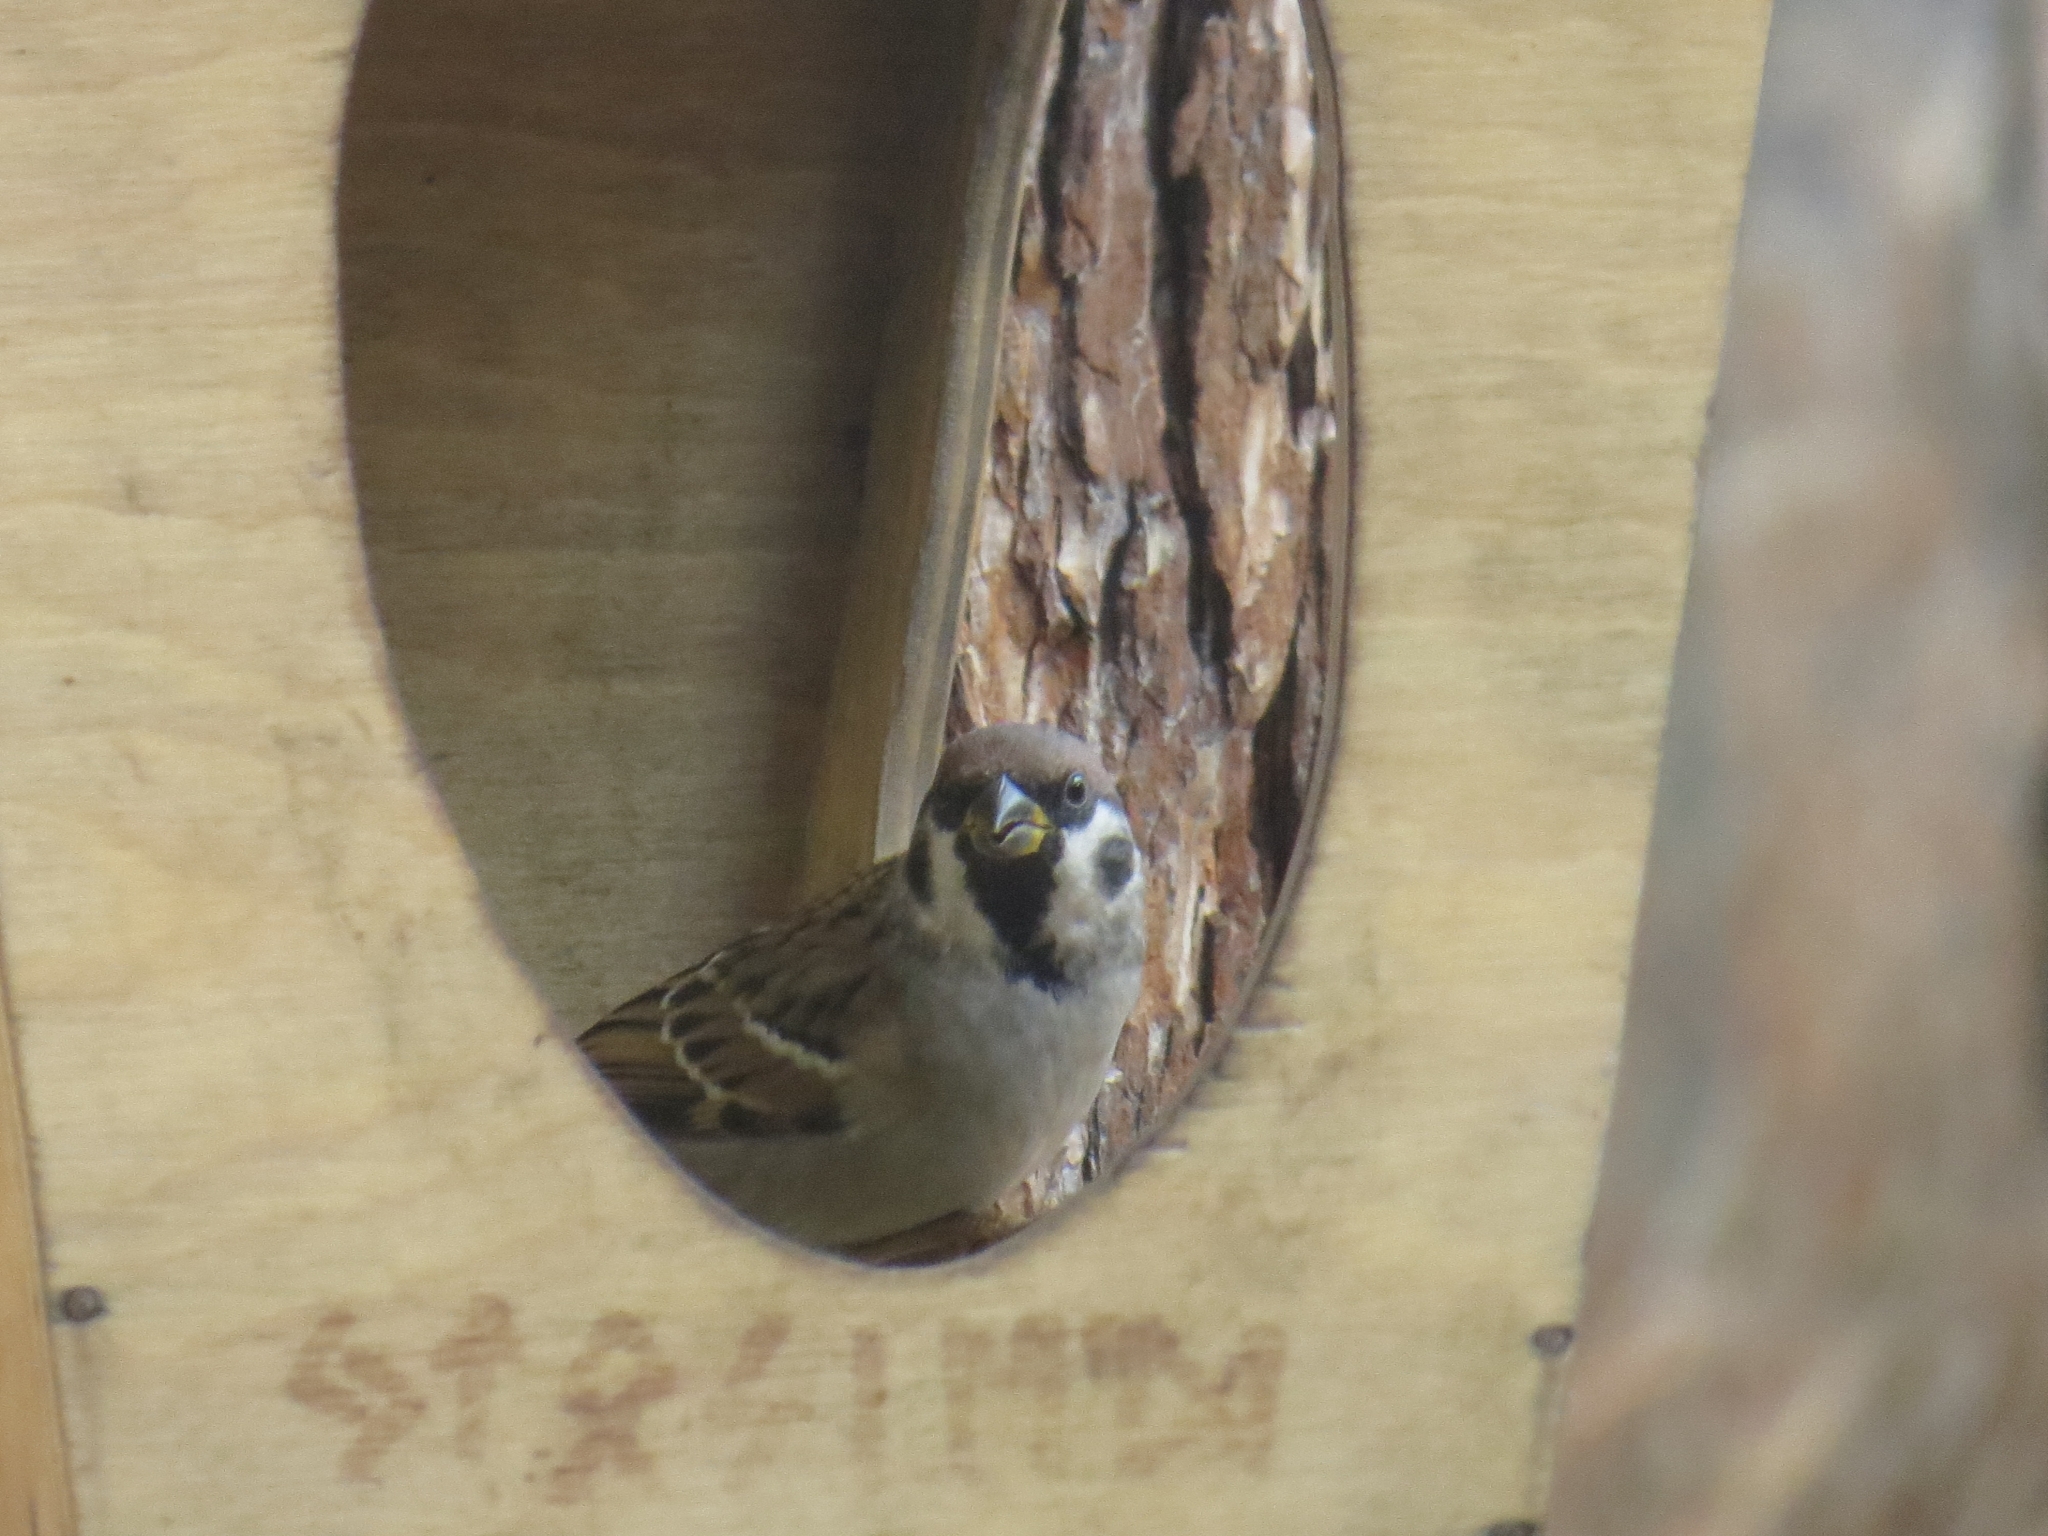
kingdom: Animalia
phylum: Chordata
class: Aves
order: Passeriformes
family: Passeridae
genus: Passer
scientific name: Passer montanus
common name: Eurasian tree sparrow
